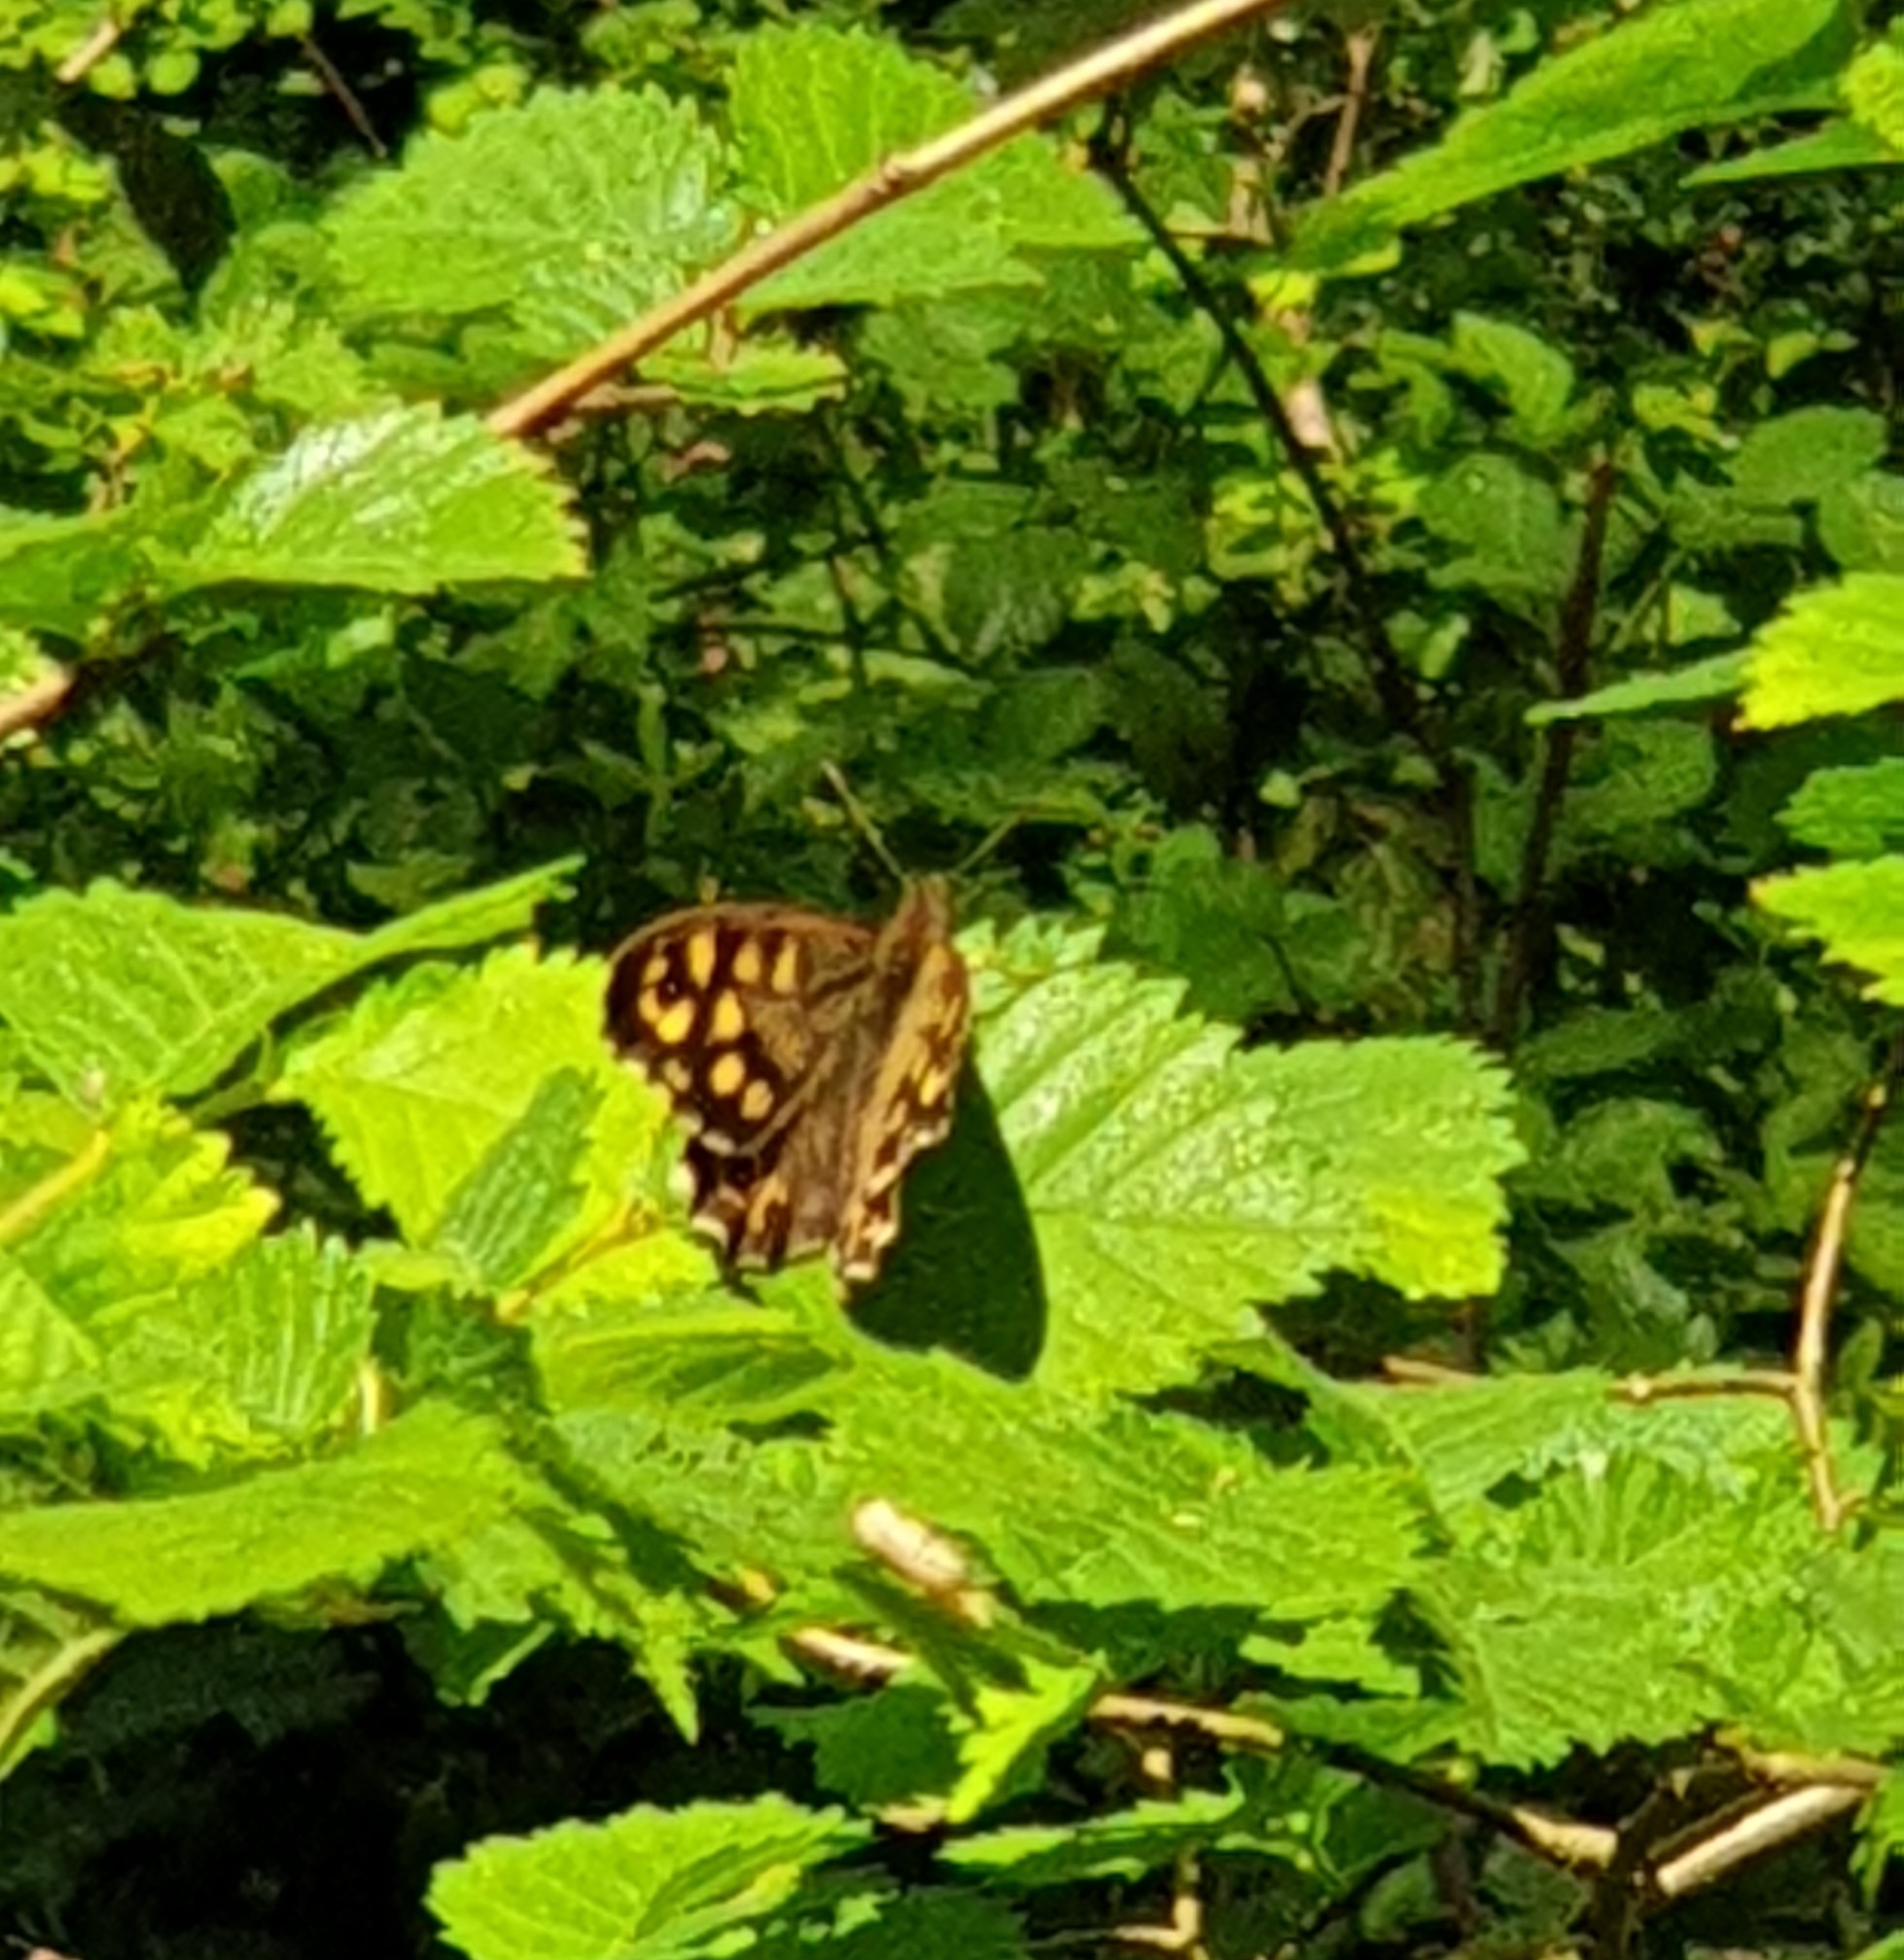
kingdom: Animalia
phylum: Arthropoda
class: Insecta
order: Lepidoptera
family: Nymphalidae
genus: Pararge
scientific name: Pararge aegeria
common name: Speckled wood
